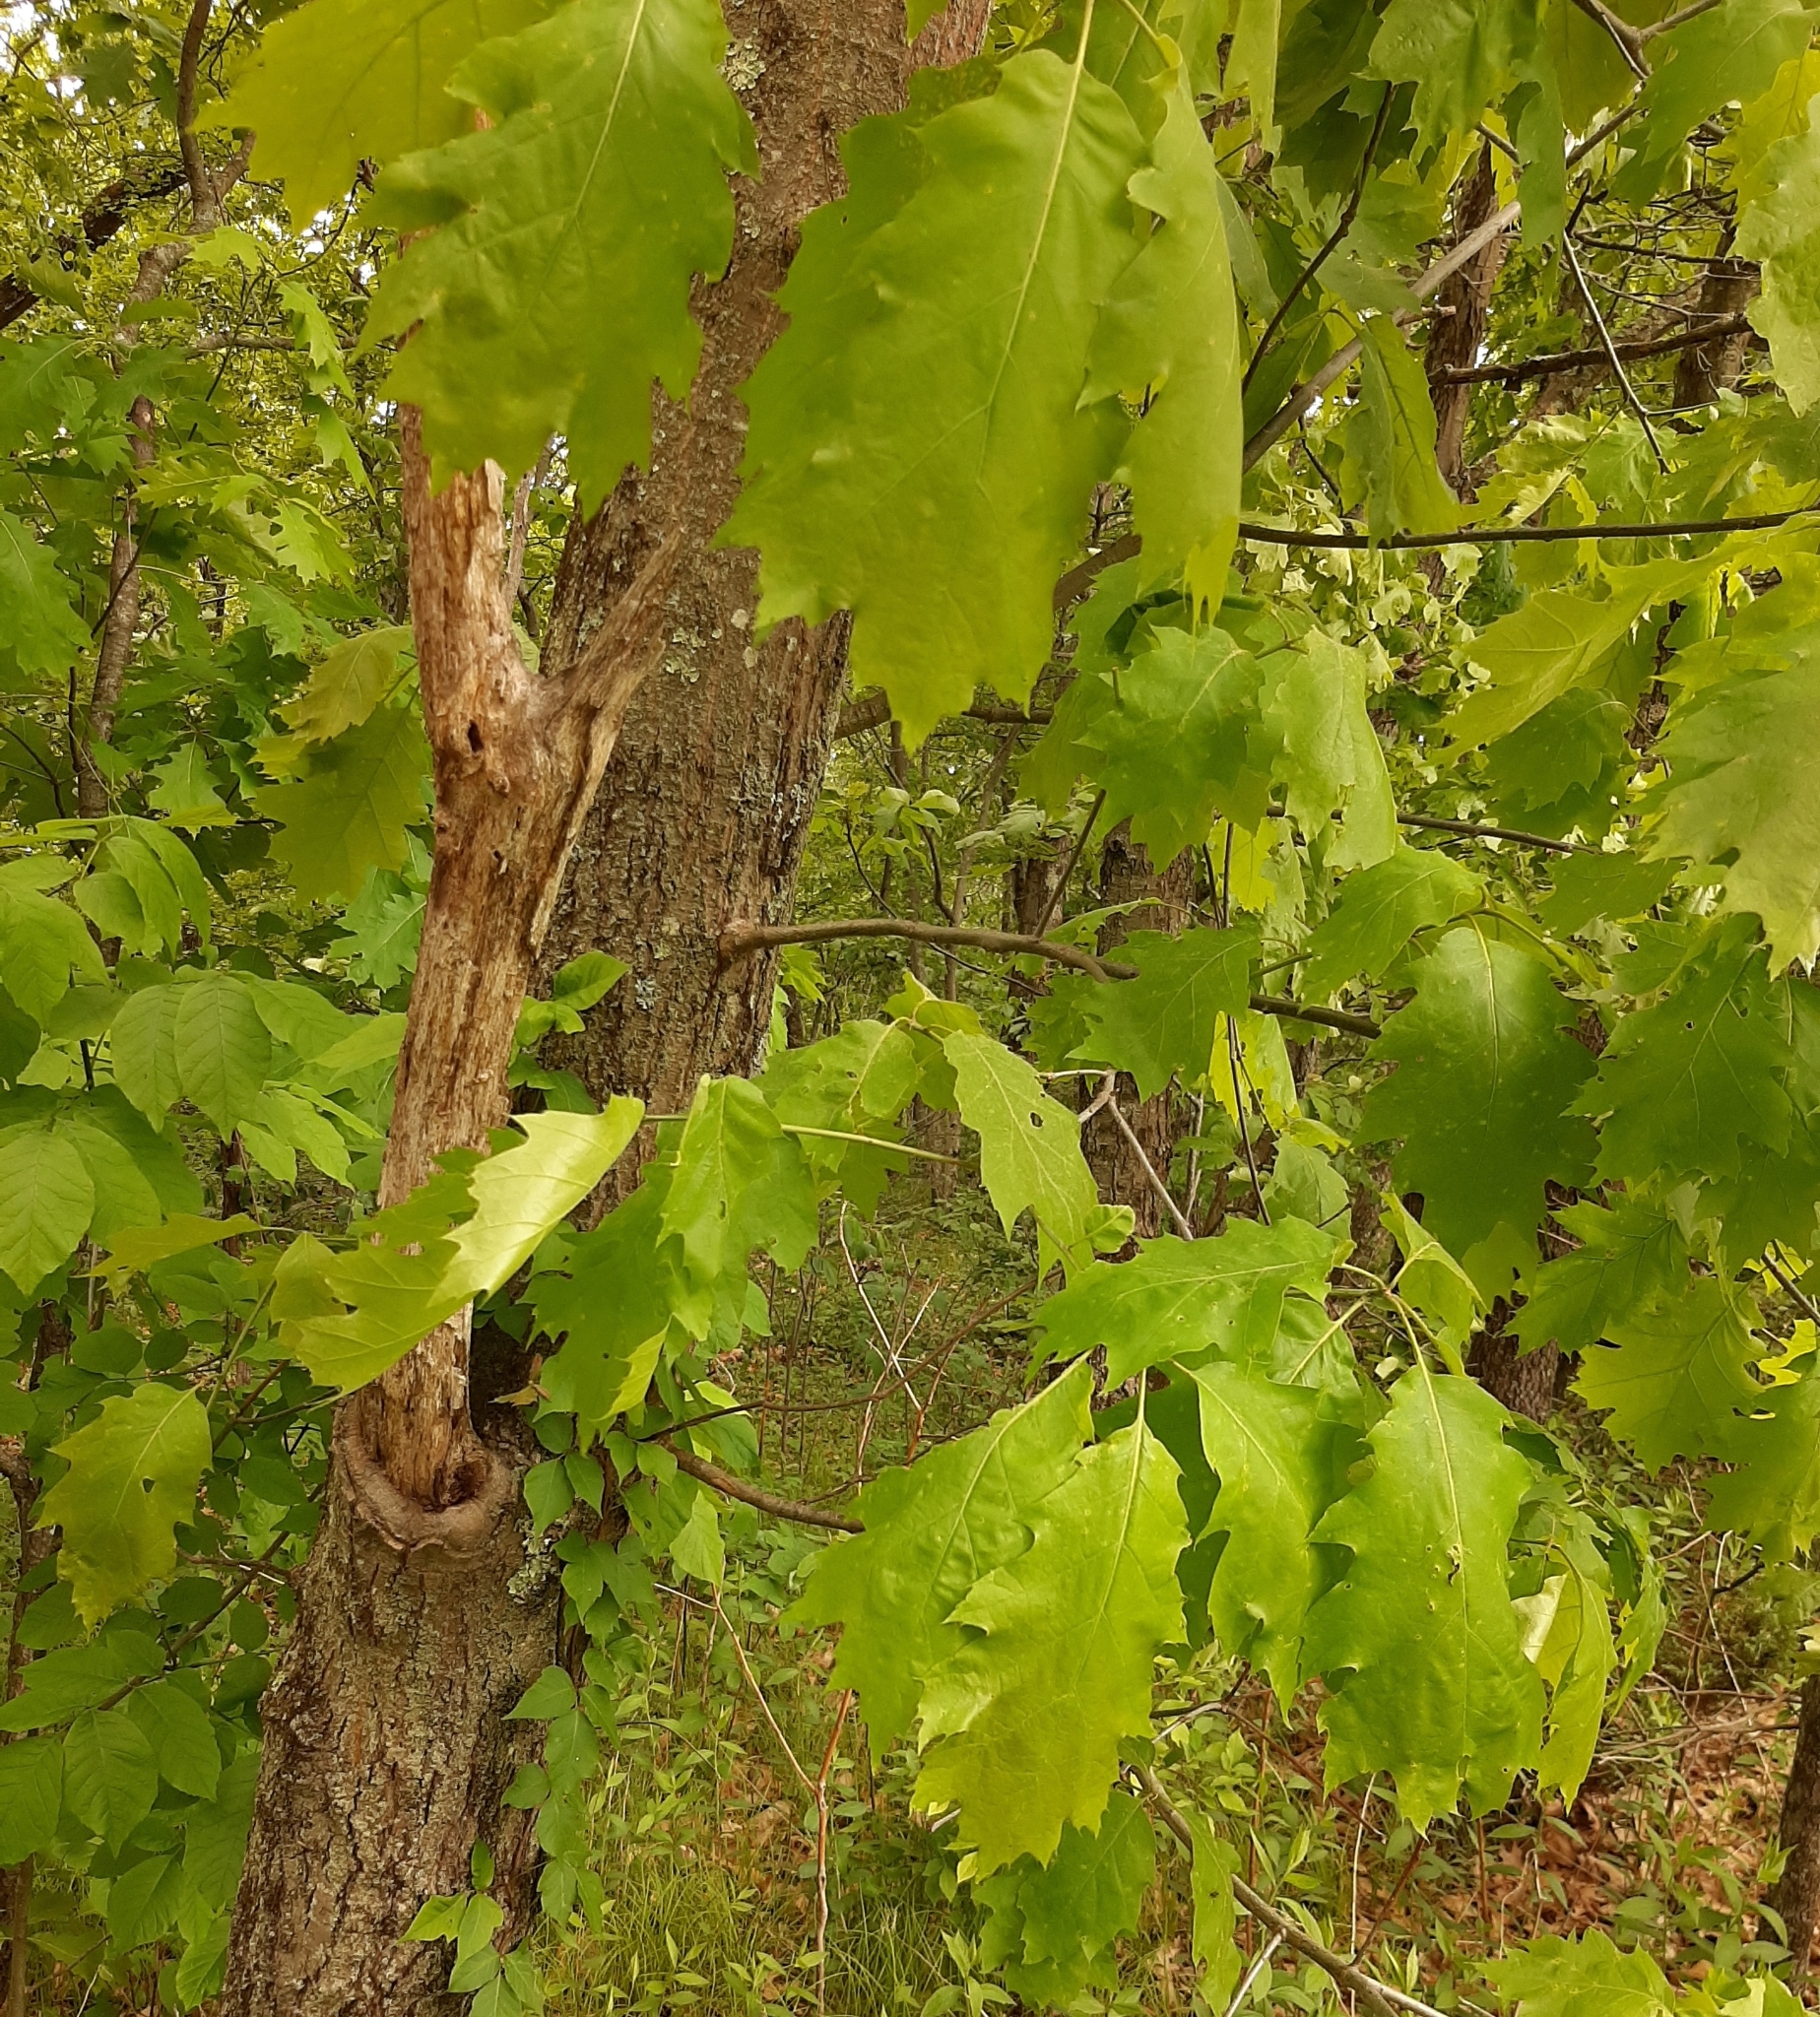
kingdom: Plantae
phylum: Tracheophyta
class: Magnoliopsida
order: Fagales
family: Fagaceae
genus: Quercus
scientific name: Quercus rubra
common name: Red oak
